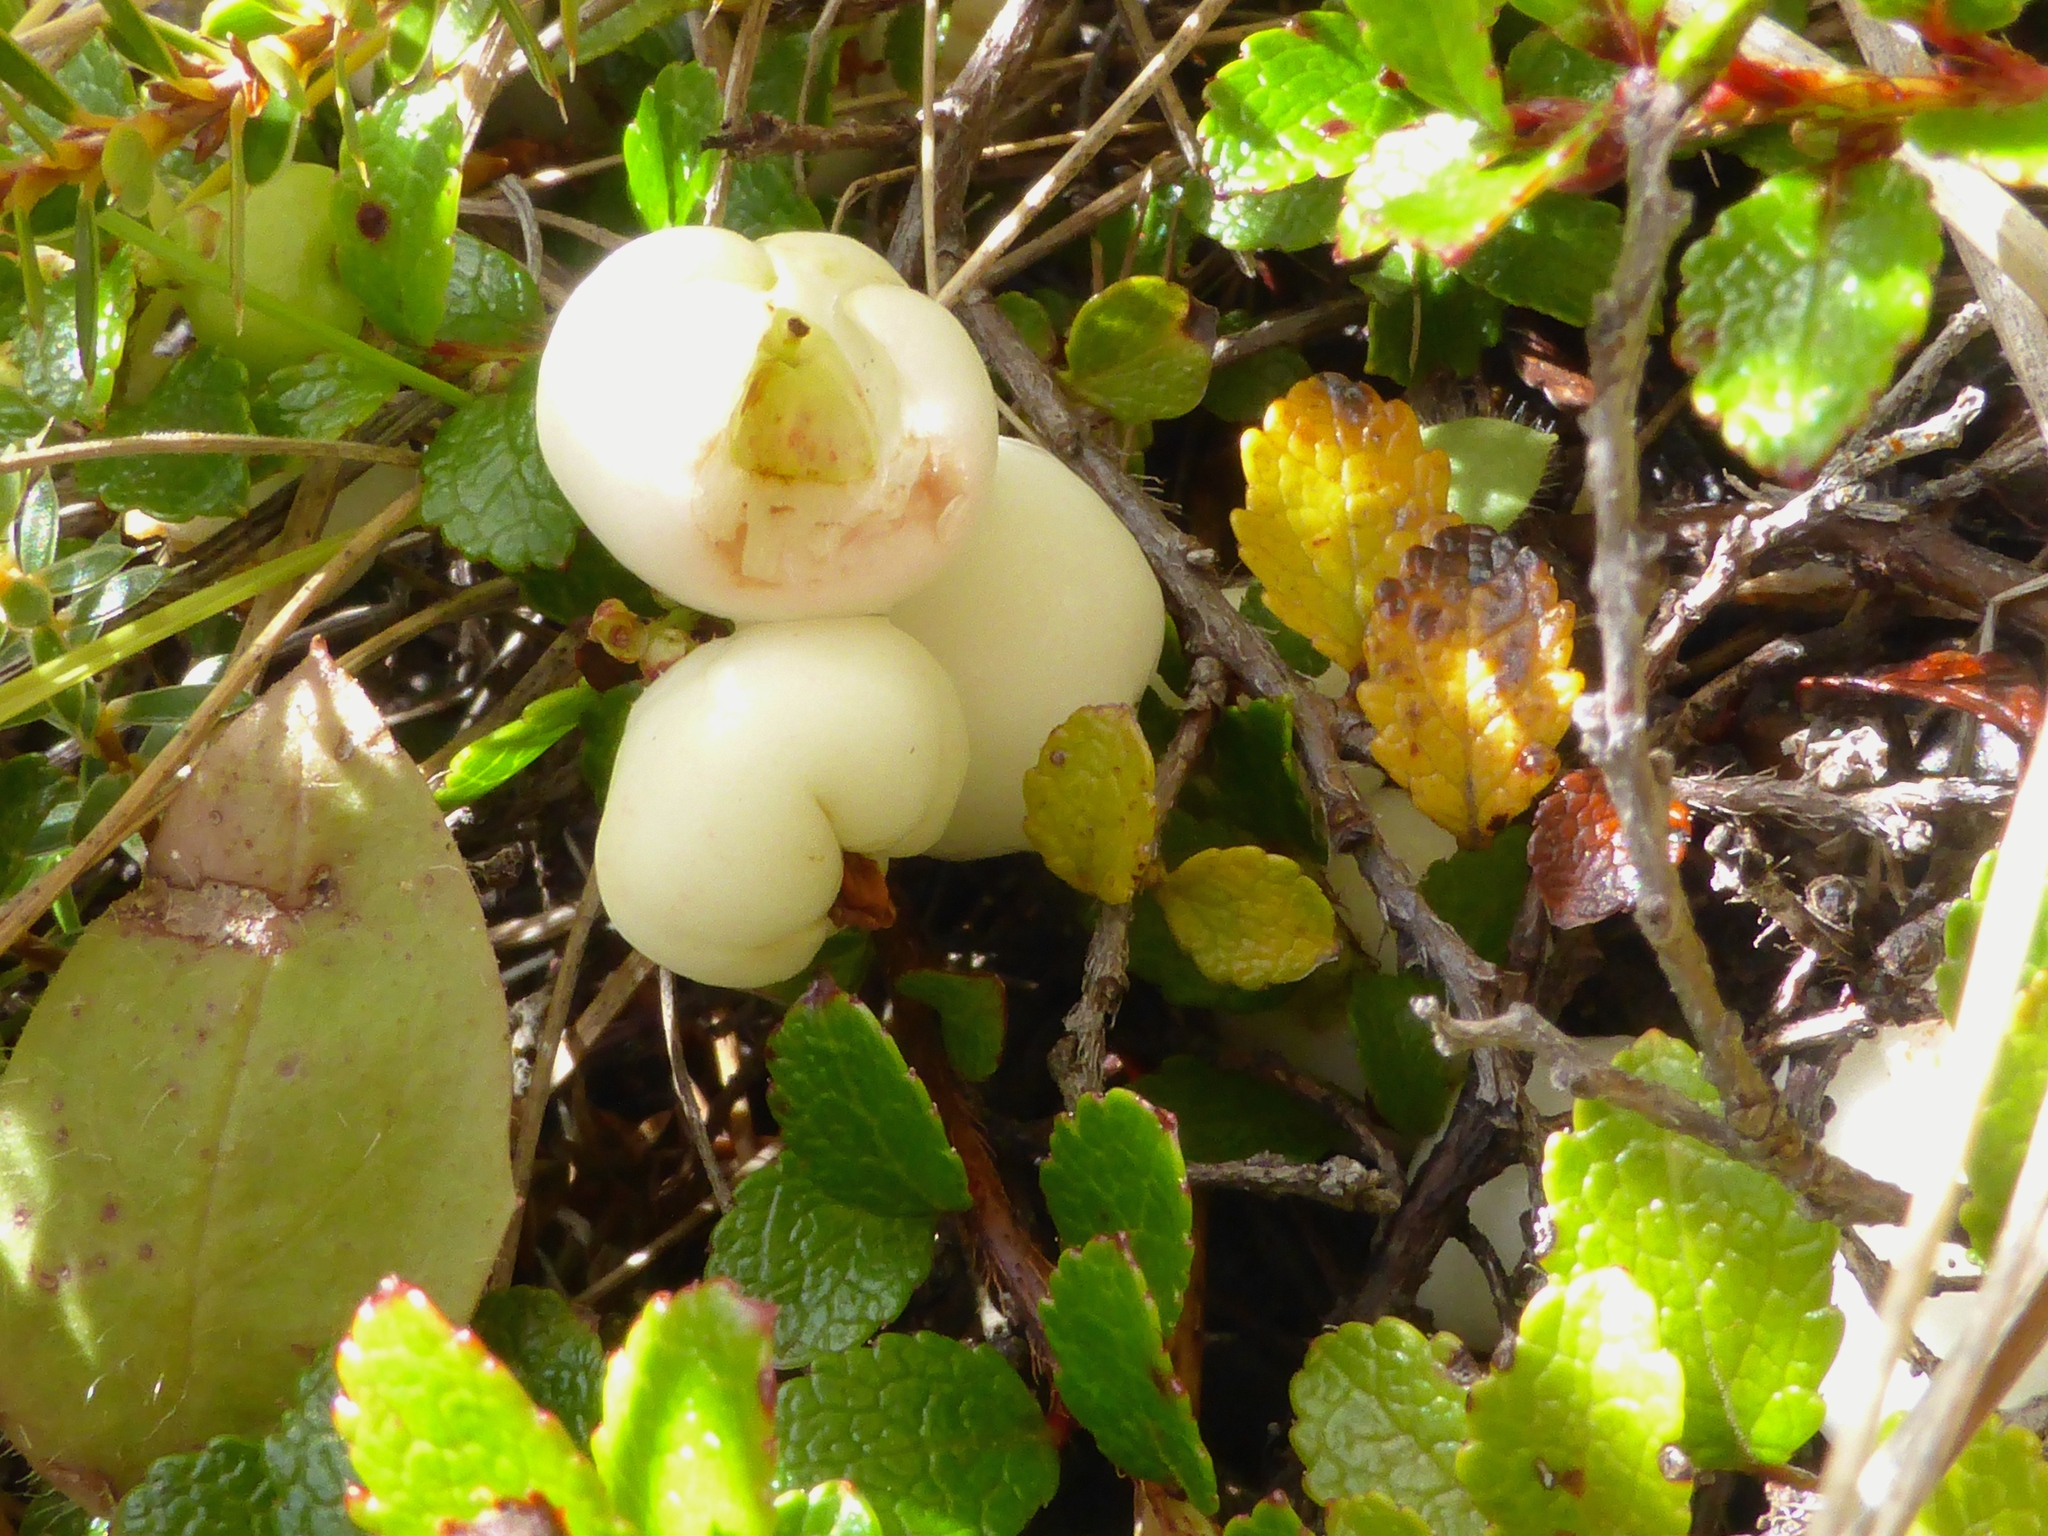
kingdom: Plantae
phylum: Tracheophyta
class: Magnoliopsida
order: Ericales
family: Ericaceae
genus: Gaultheria
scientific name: Gaultheria depressa
